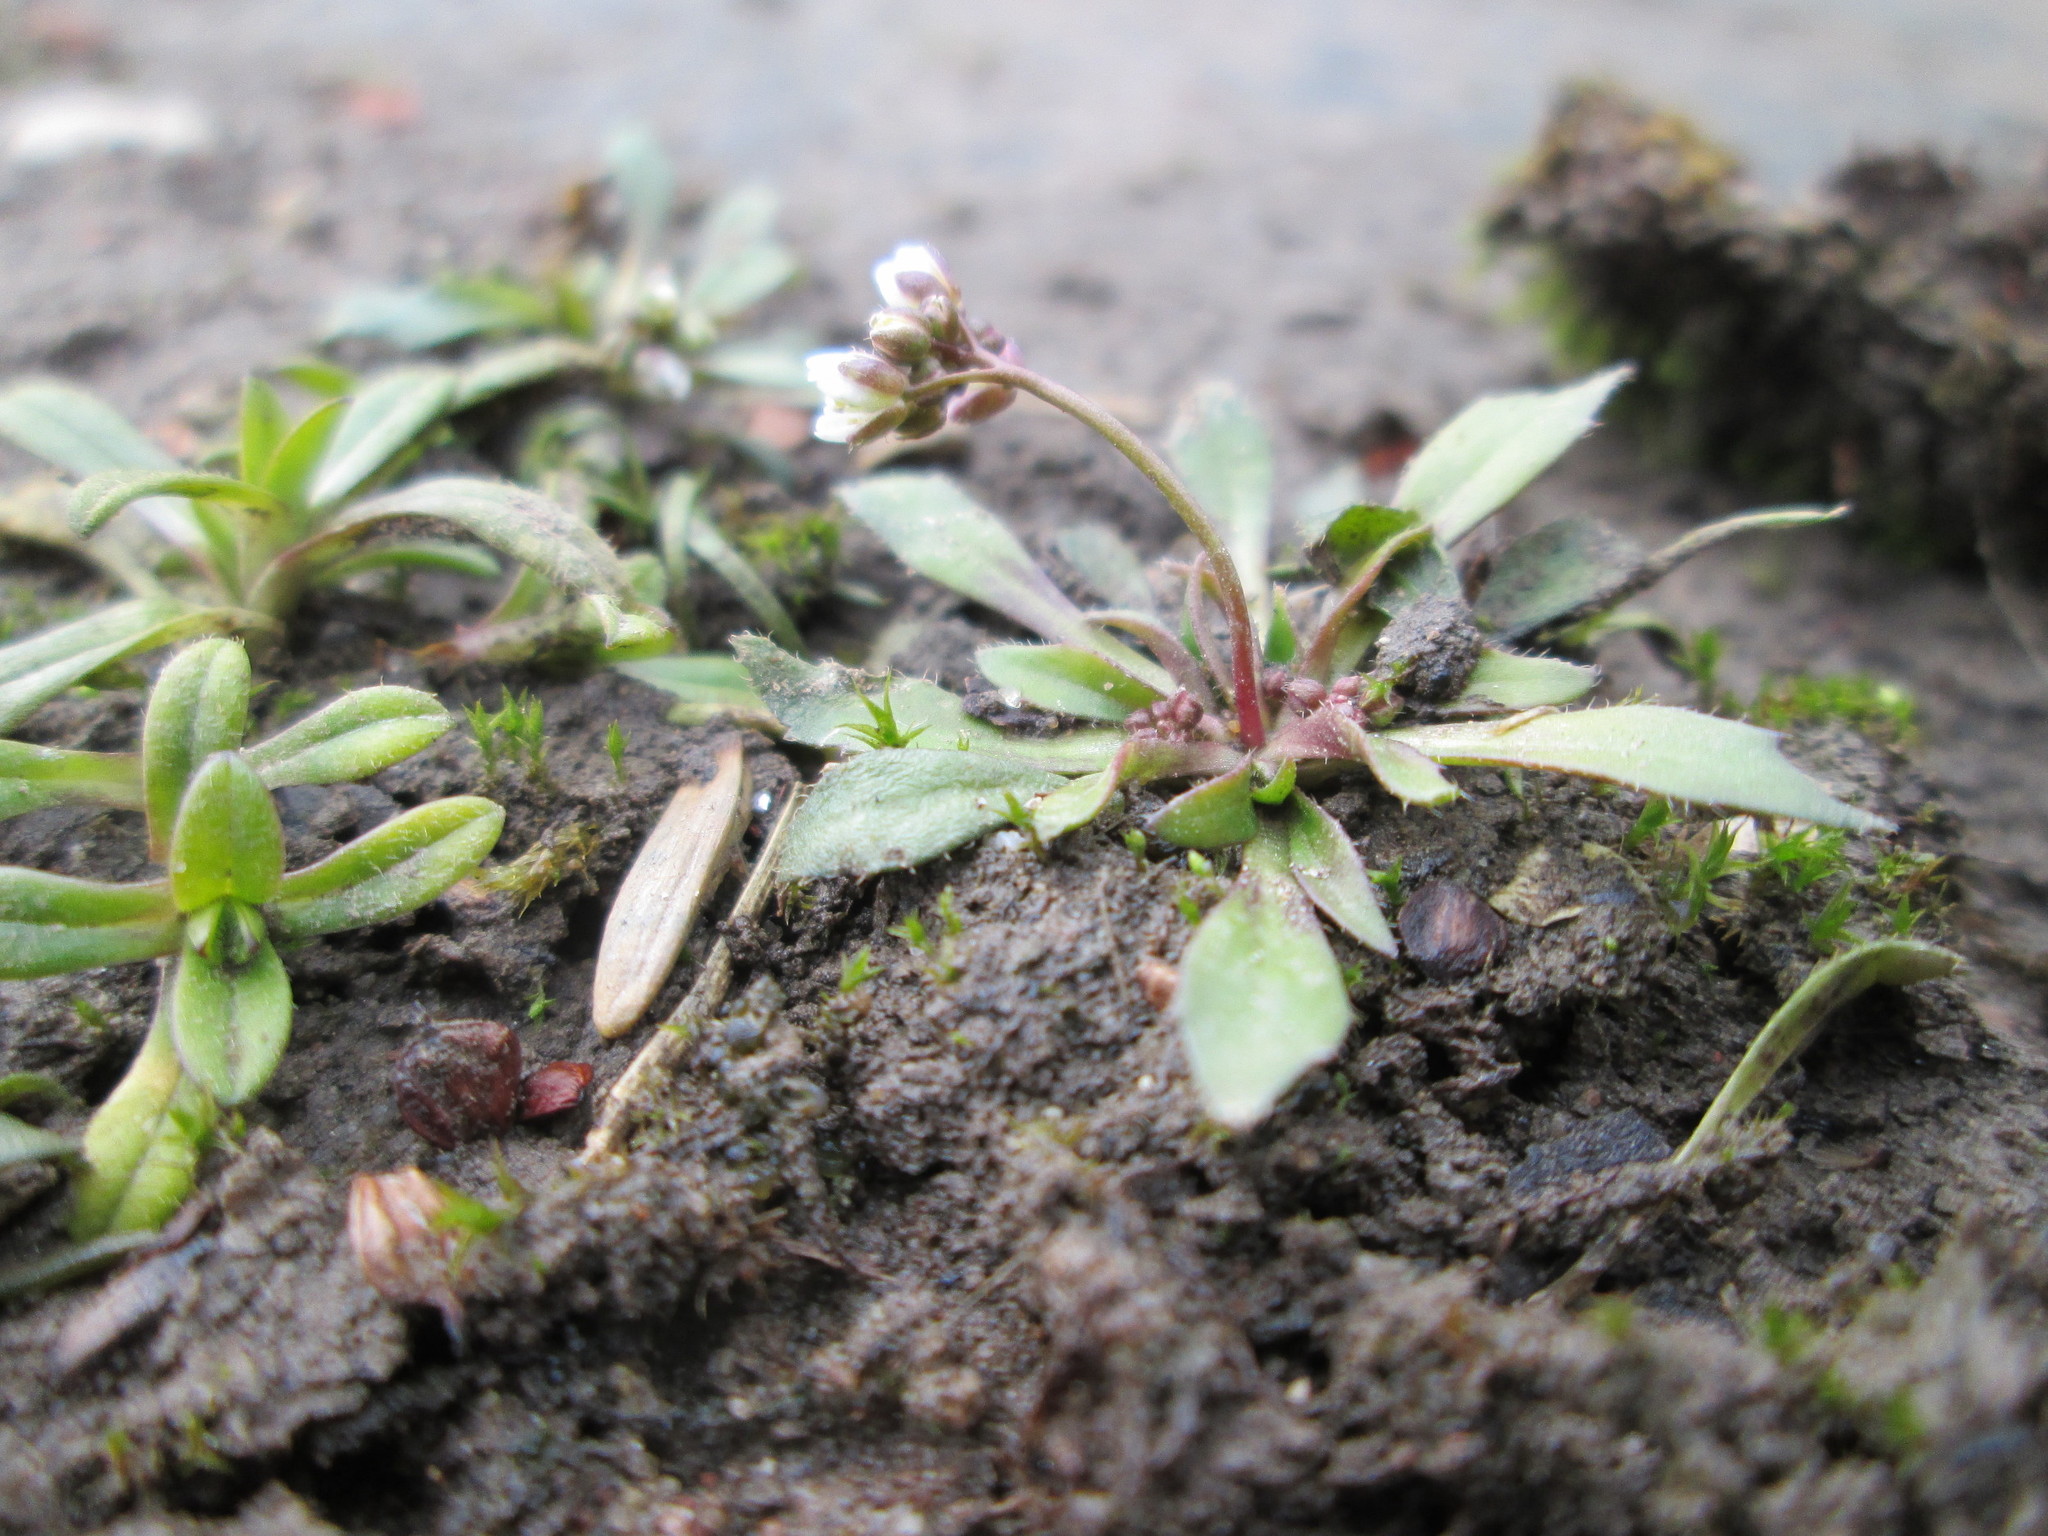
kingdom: Plantae
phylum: Tracheophyta
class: Magnoliopsida
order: Brassicales
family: Brassicaceae
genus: Draba
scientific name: Draba verna
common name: Spring draba
